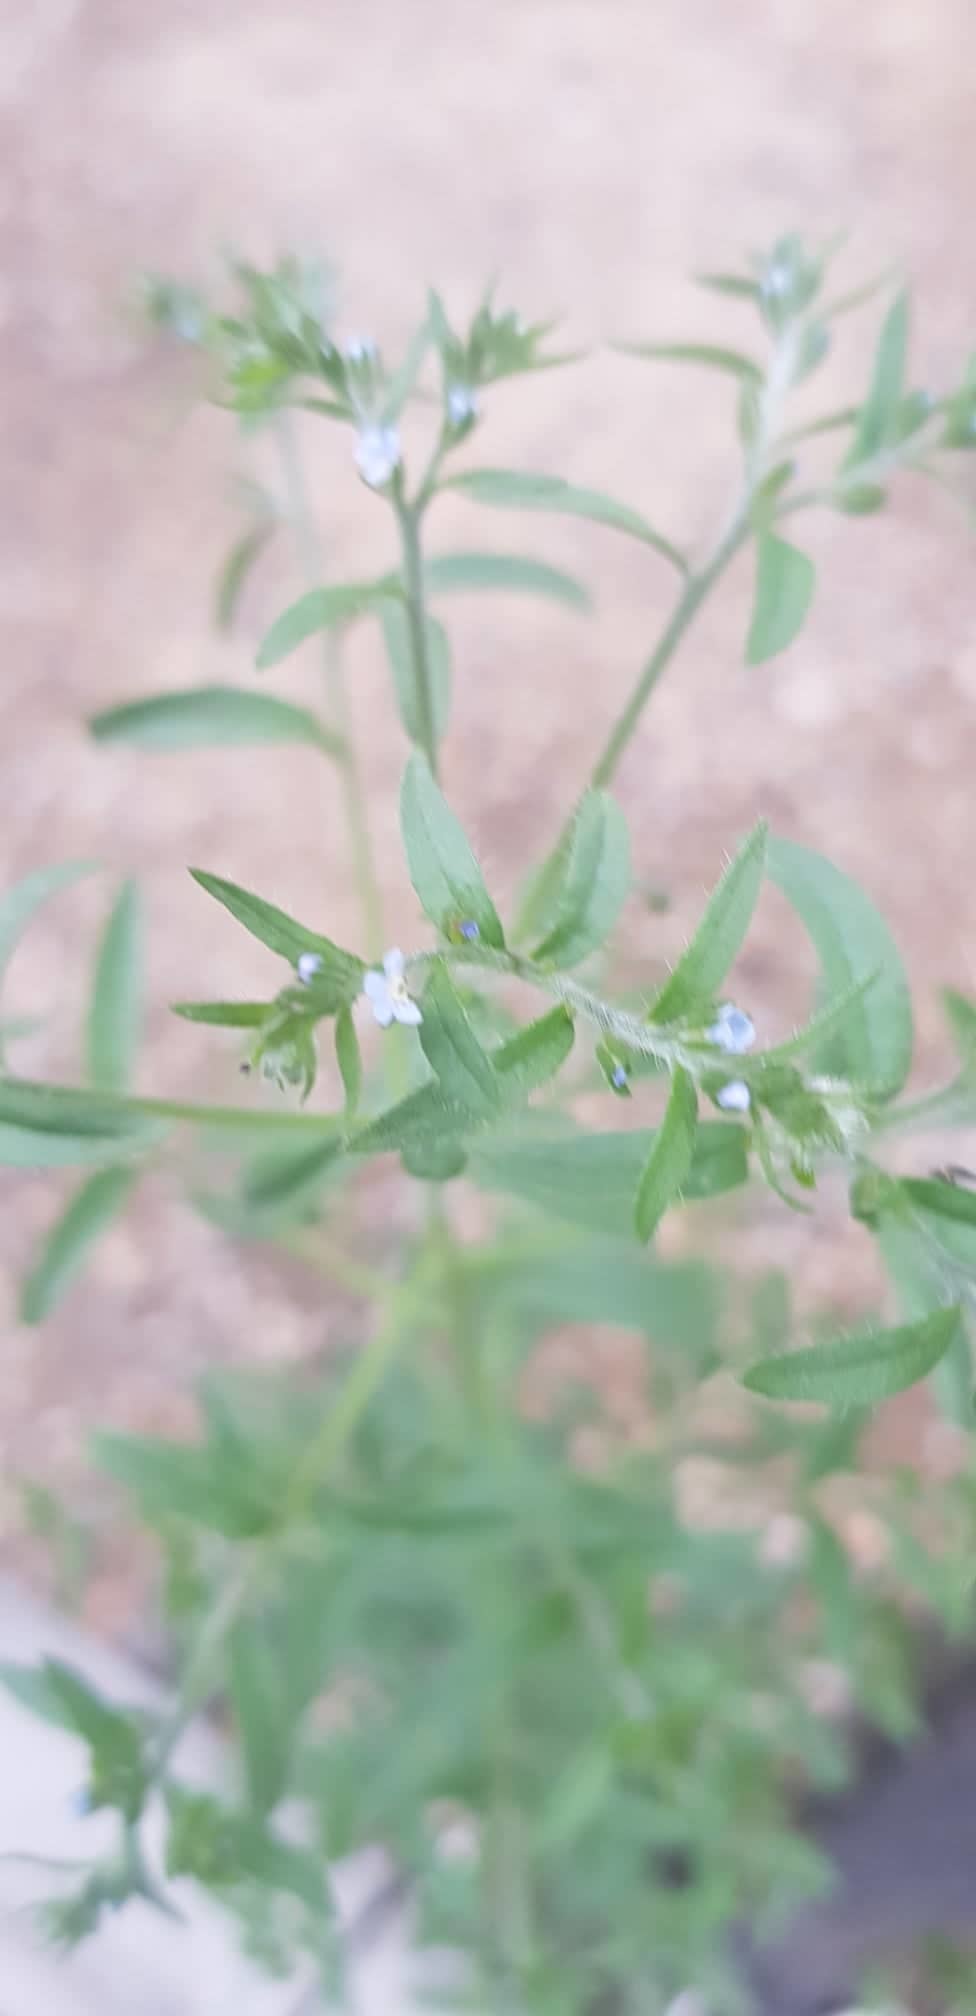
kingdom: Plantae
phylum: Tracheophyta
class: Magnoliopsida
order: Boraginales
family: Boraginaceae
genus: Lappula
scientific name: Lappula squarrosa
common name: European stickseed
